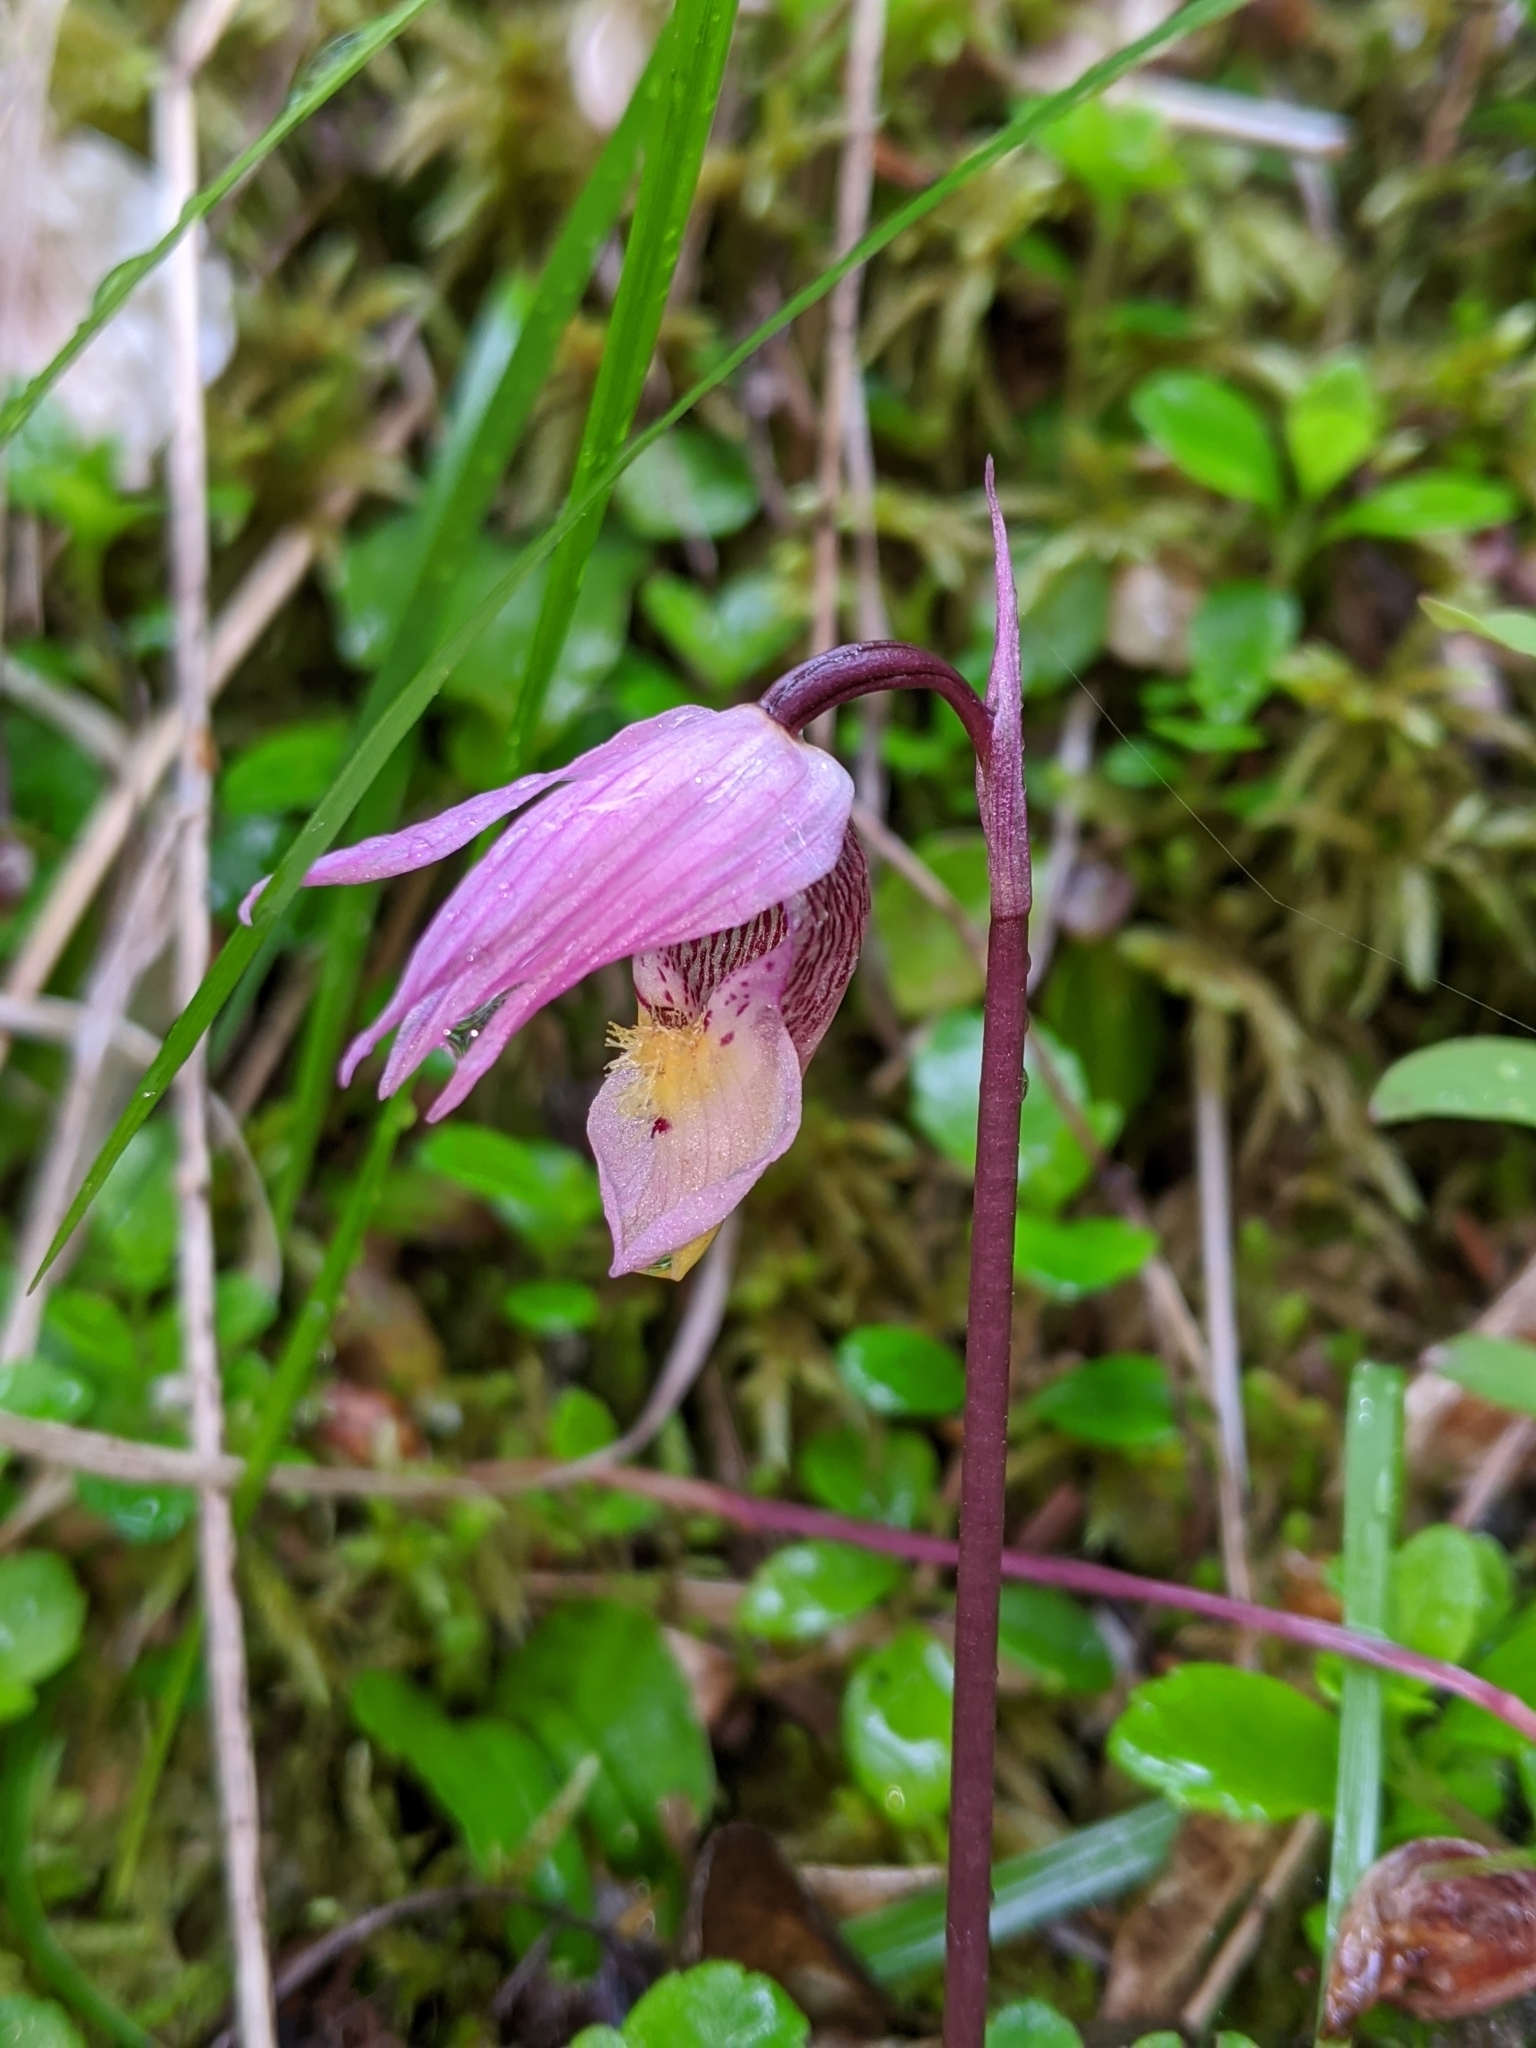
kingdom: Plantae
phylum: Tracheophyta
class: Liliopsida
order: Asparagales
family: Orchidaceae
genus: Calypso
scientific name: Calypso bulbosa
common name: Calypso
